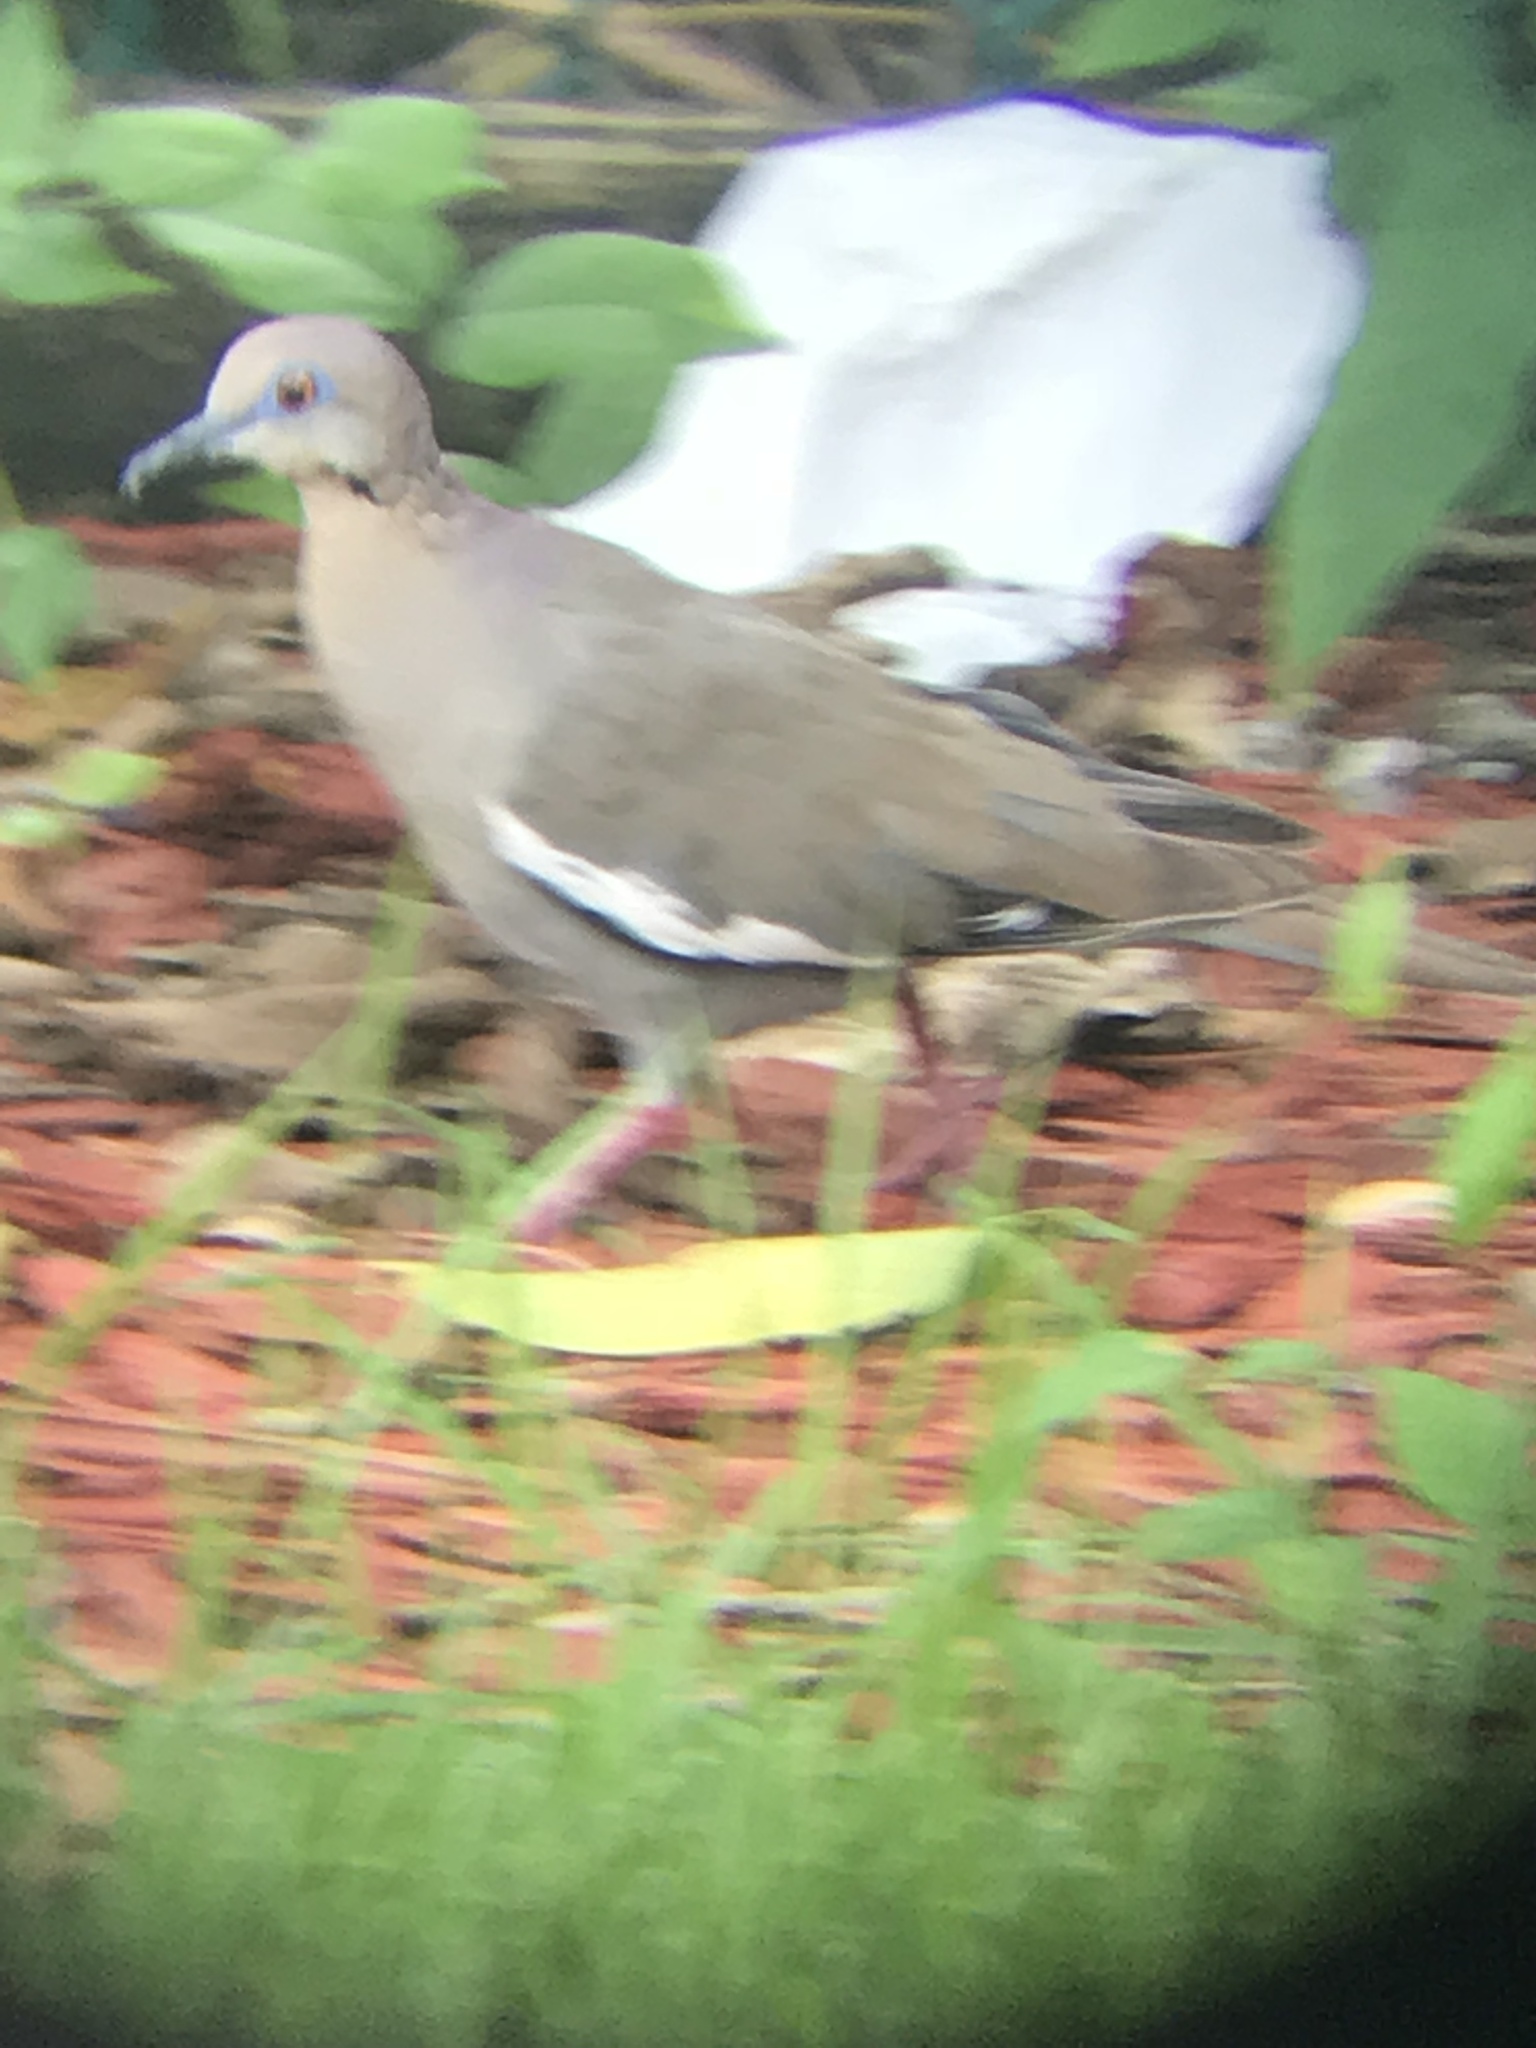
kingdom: Animalia
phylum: Chordata
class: Aves
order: Columbiformes
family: Columbidae
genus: Zenaida
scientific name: Zenaida asiatica
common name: White-winged dove
